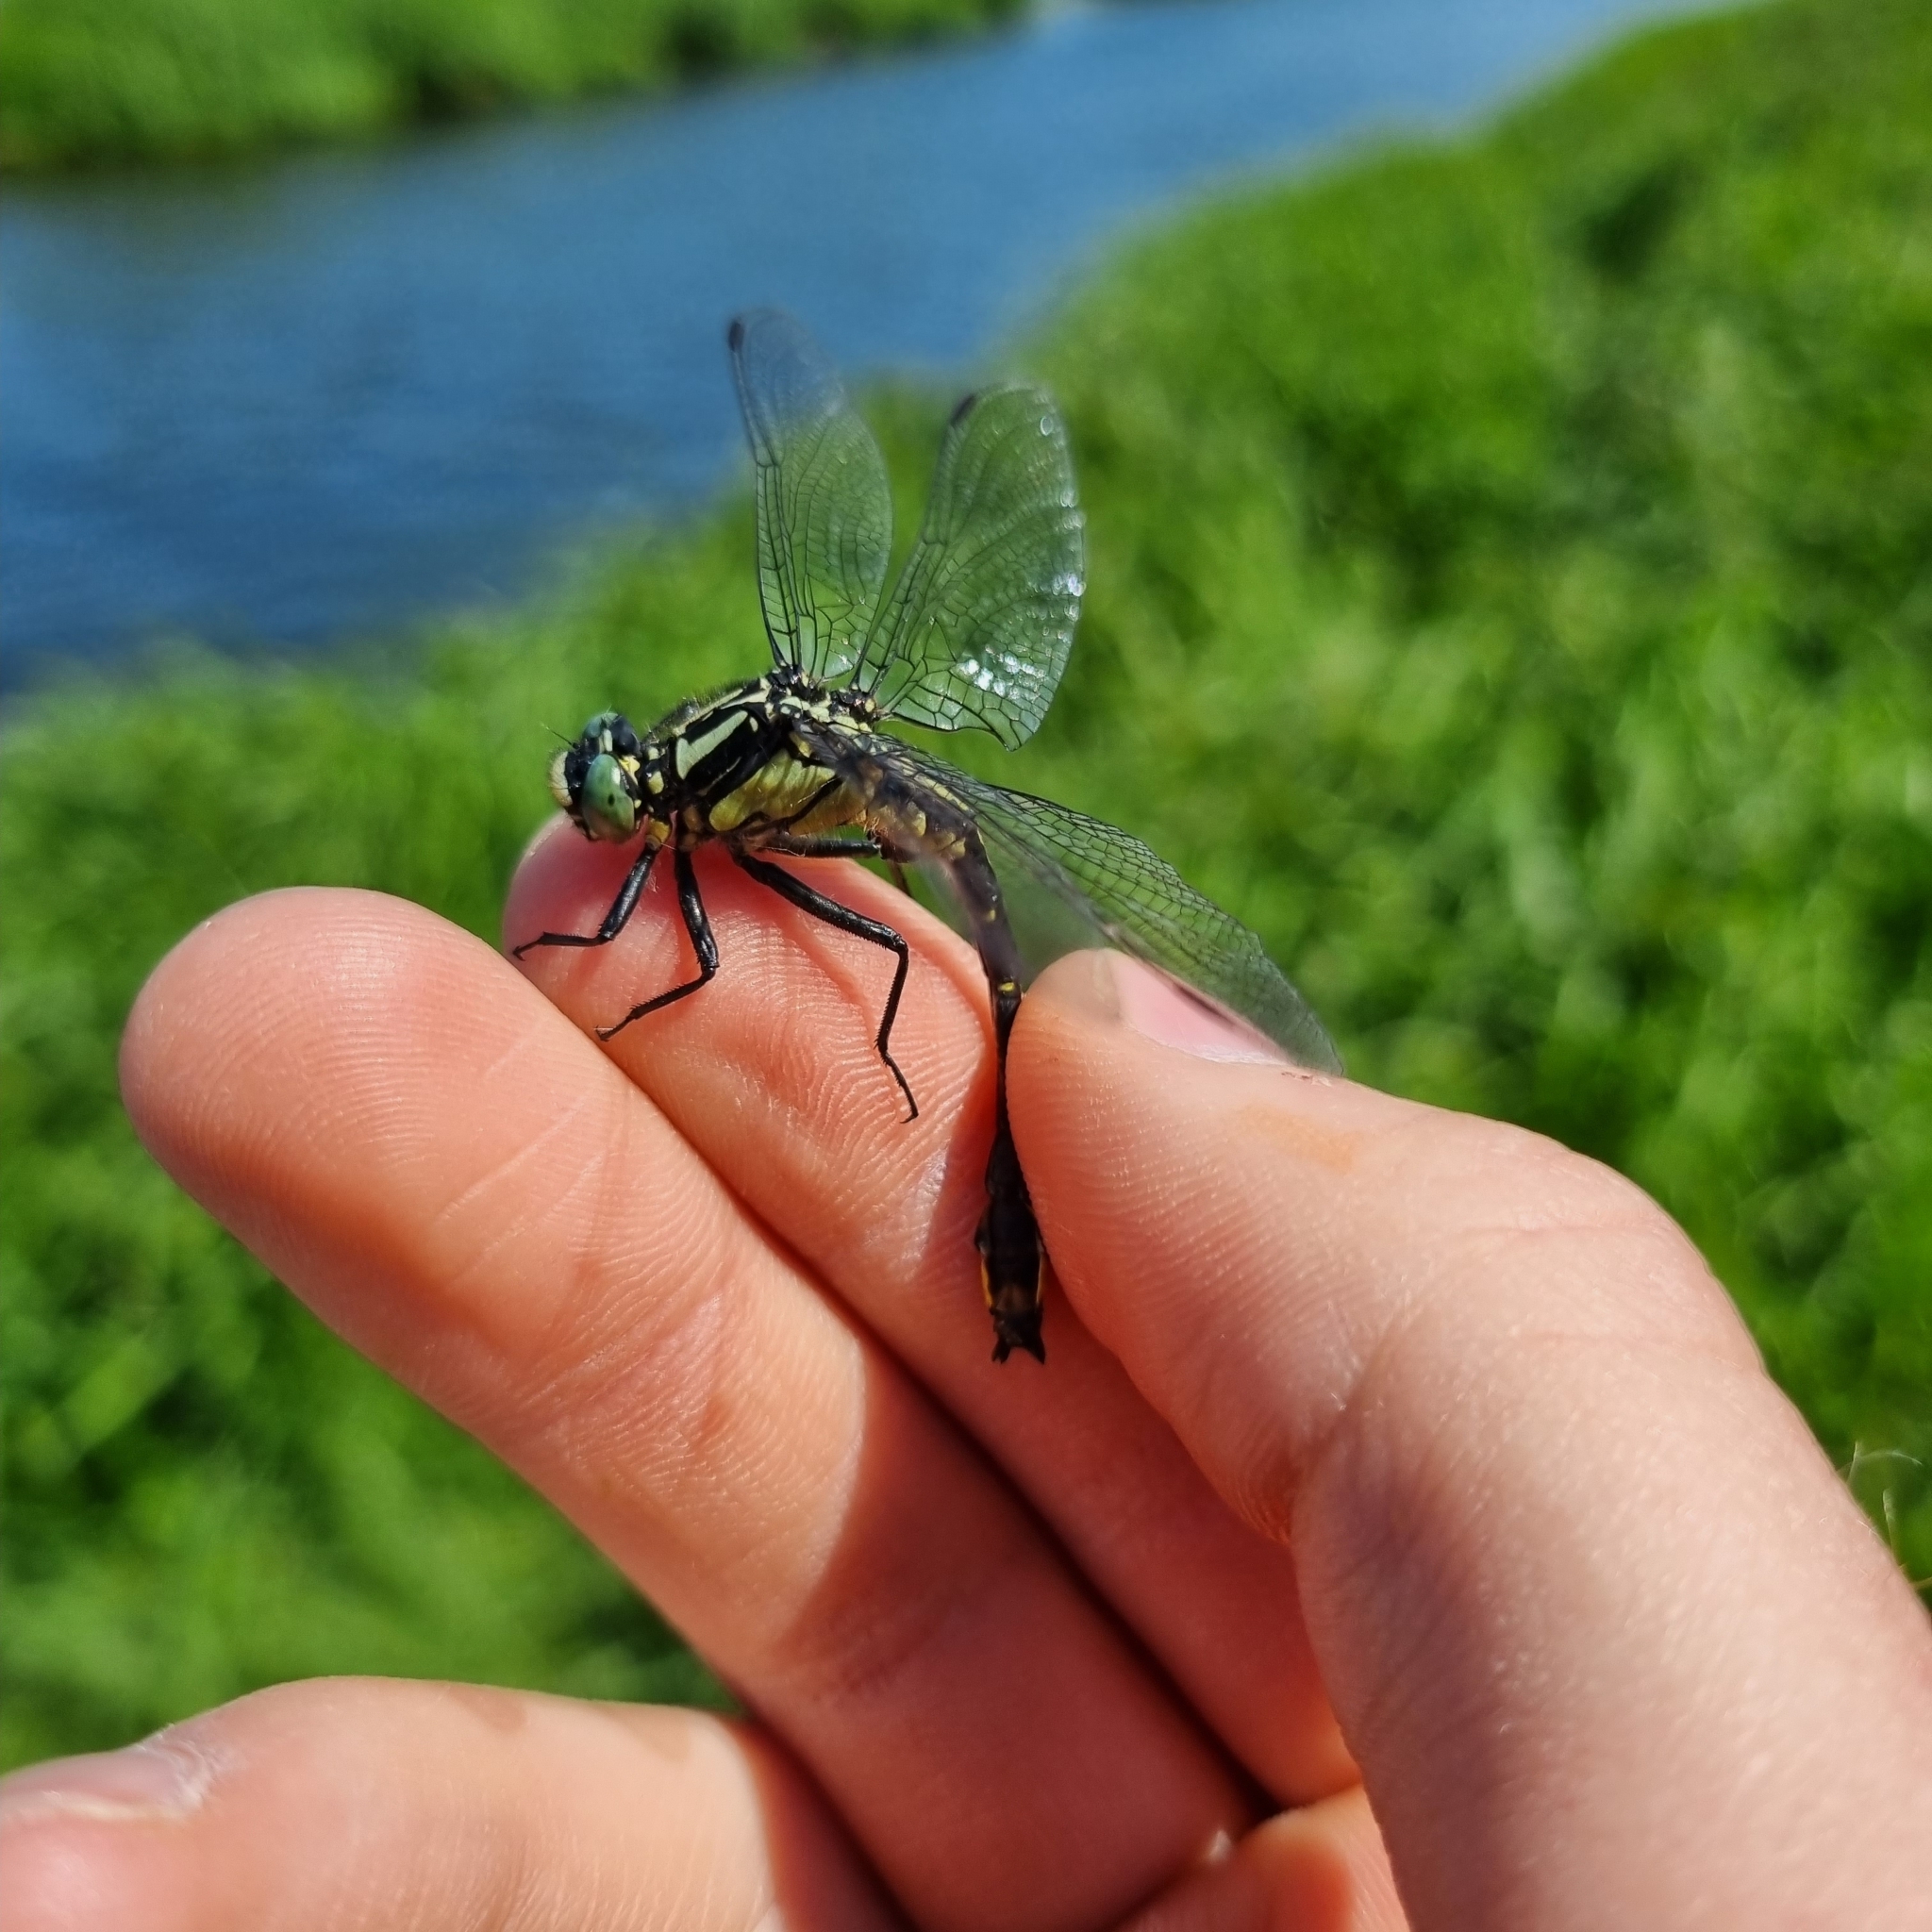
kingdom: Animalia
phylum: Arthropoda
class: Insecta
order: Odonata
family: Gomphidae
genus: Gomphus
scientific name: Gomphus vulgatissimus
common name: Club-tailed dragonfly
